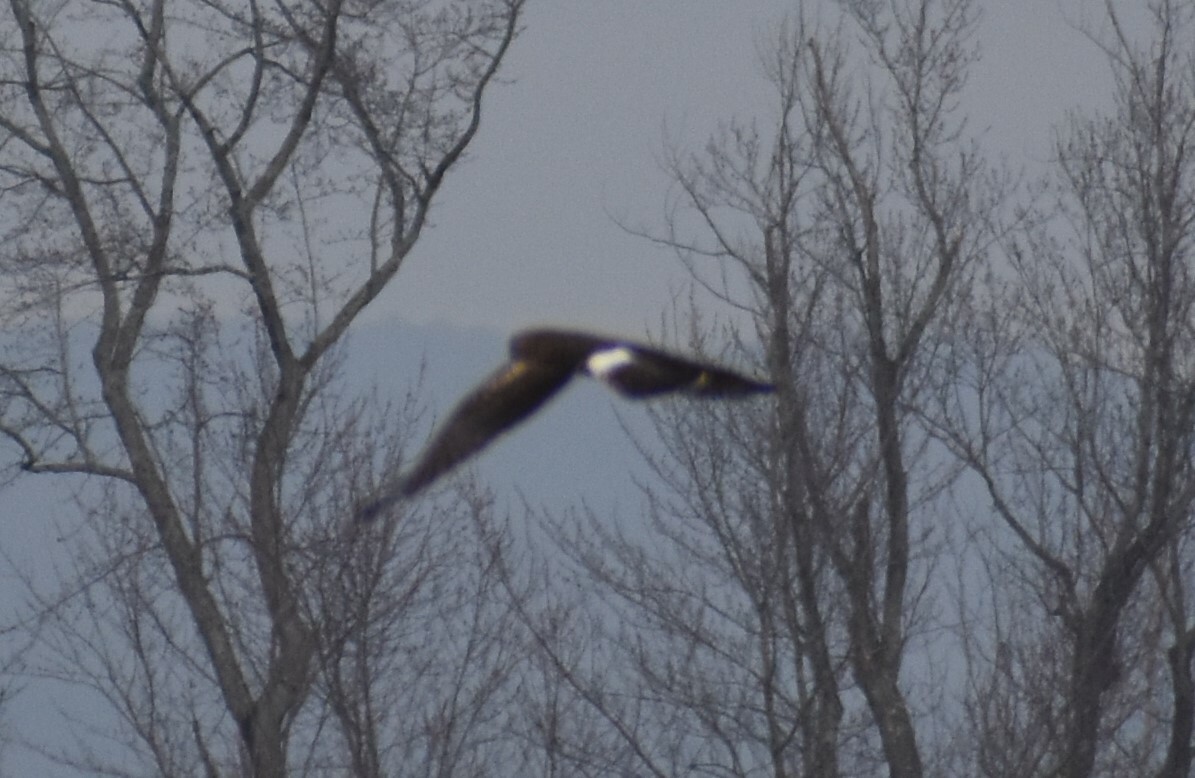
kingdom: Animalia
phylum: Chordata
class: Aves
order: Accipitriformes
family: Accipitridae
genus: Circus
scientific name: Circus cyaneus
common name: Hen harrier
